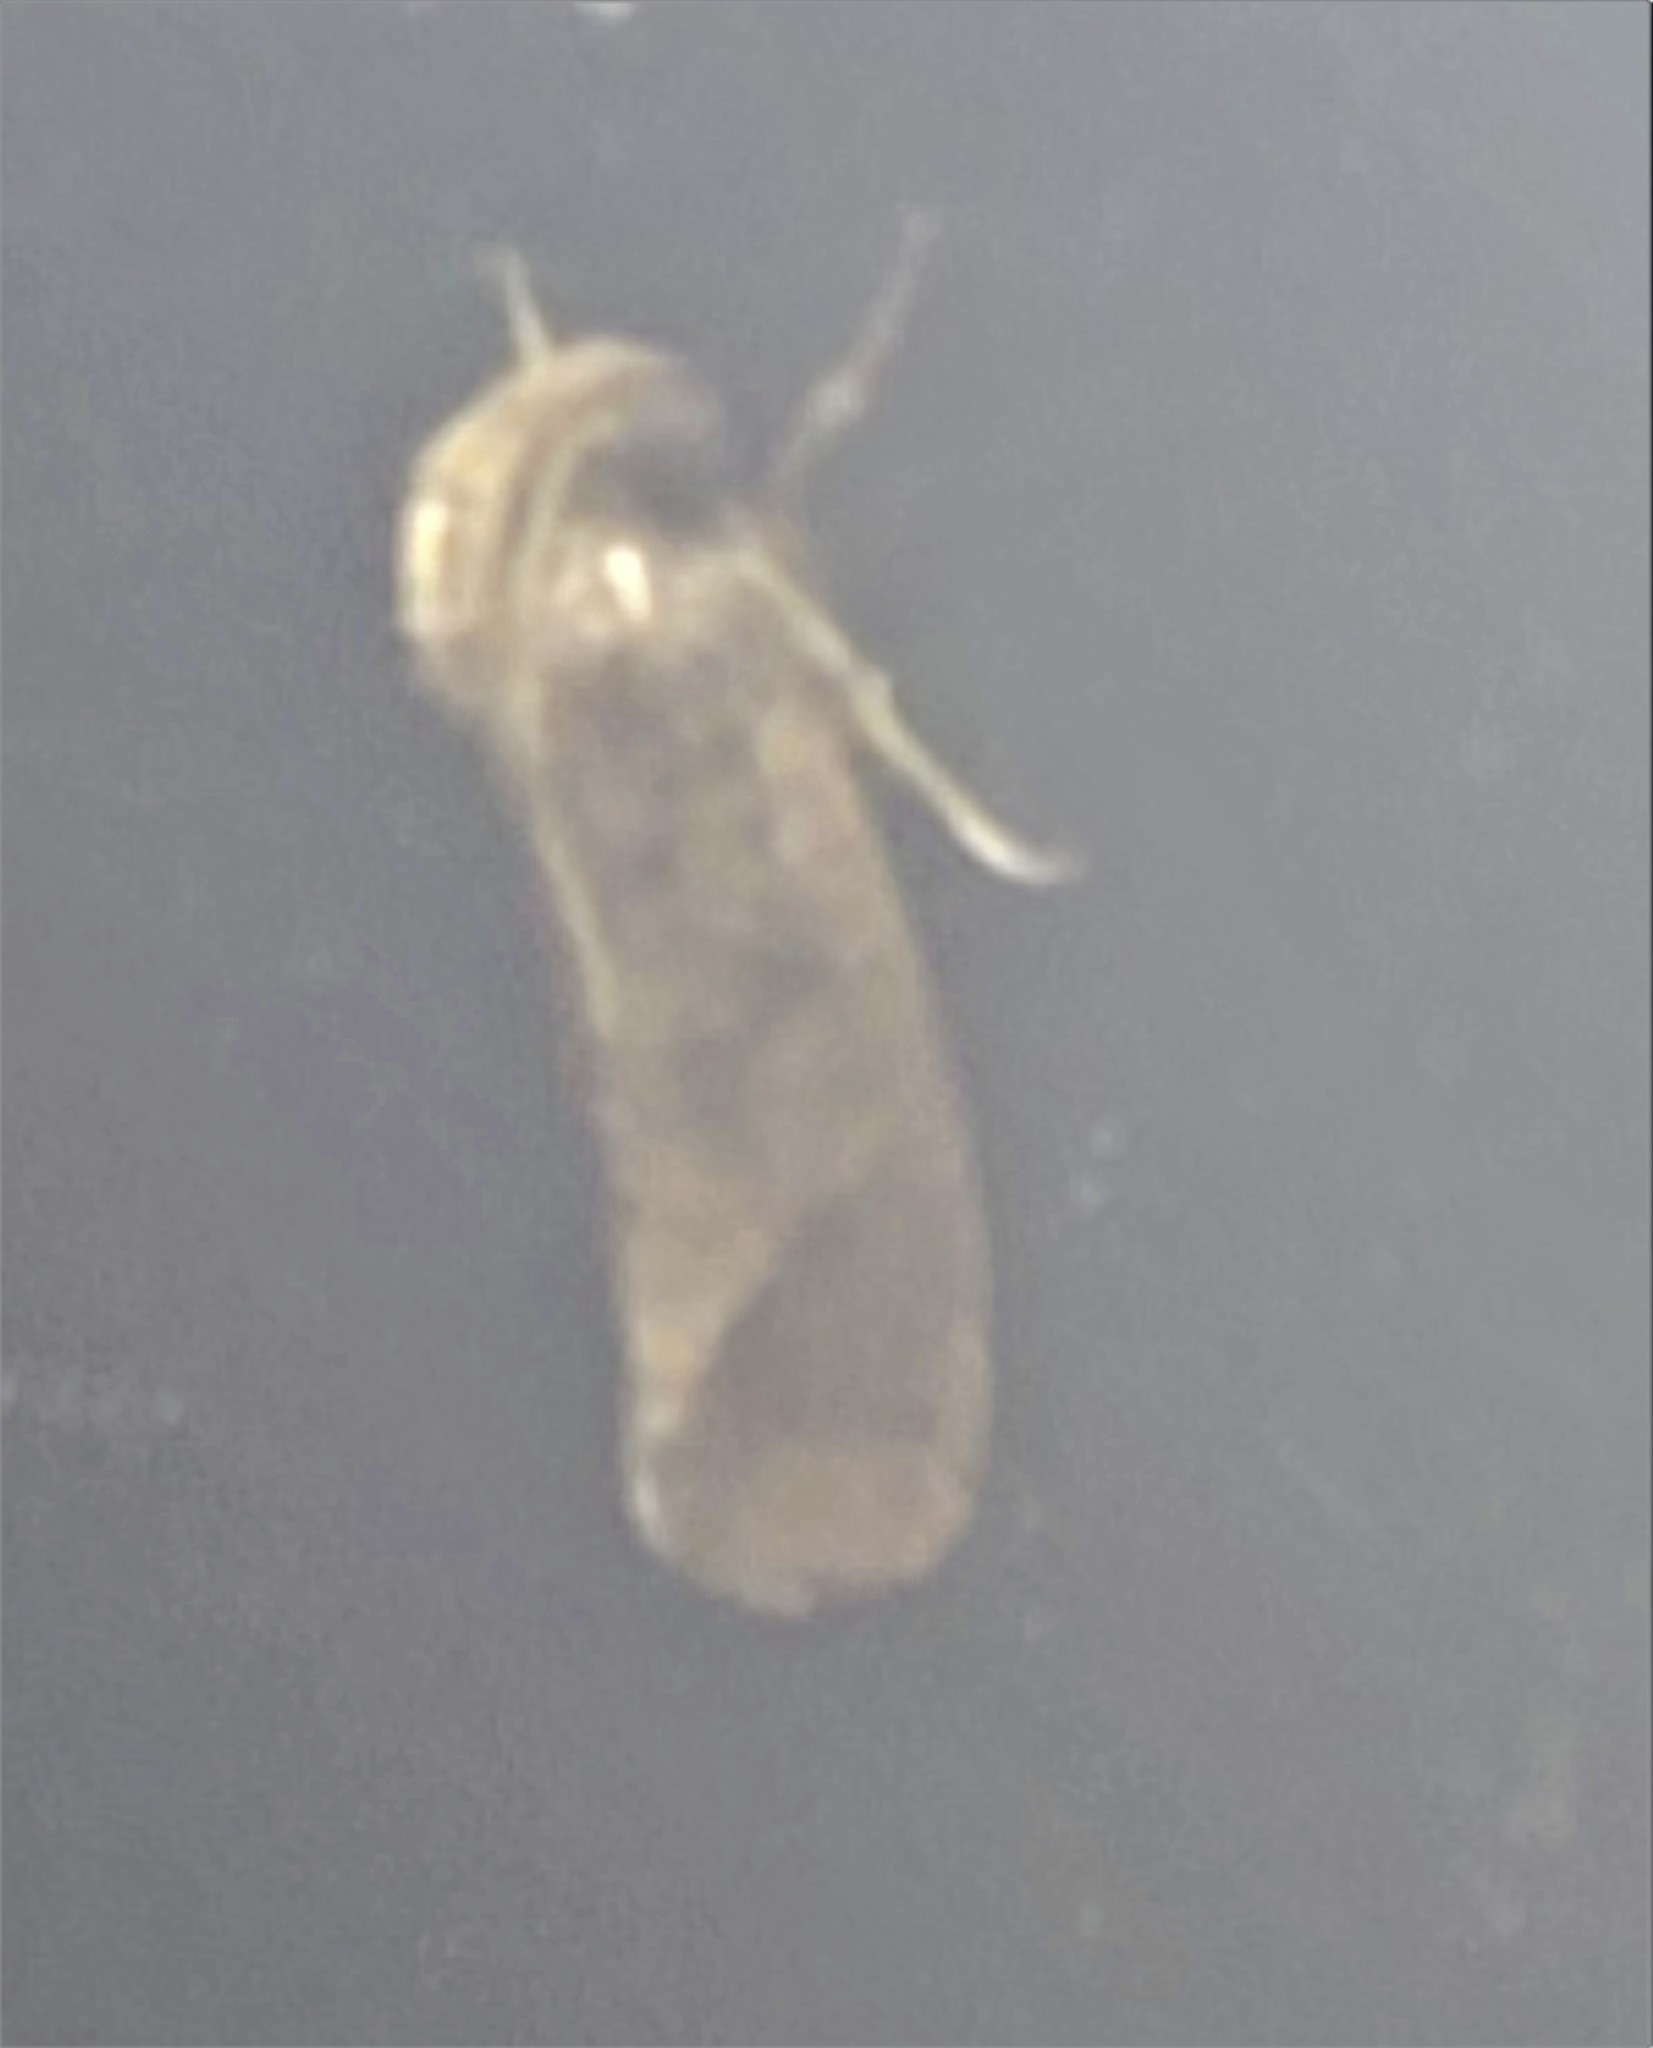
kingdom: Animalia
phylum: Arthropoda
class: Insecta
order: Lepidoptera
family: Tineidae
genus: Acrolophus
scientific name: Acrolophus texanella
